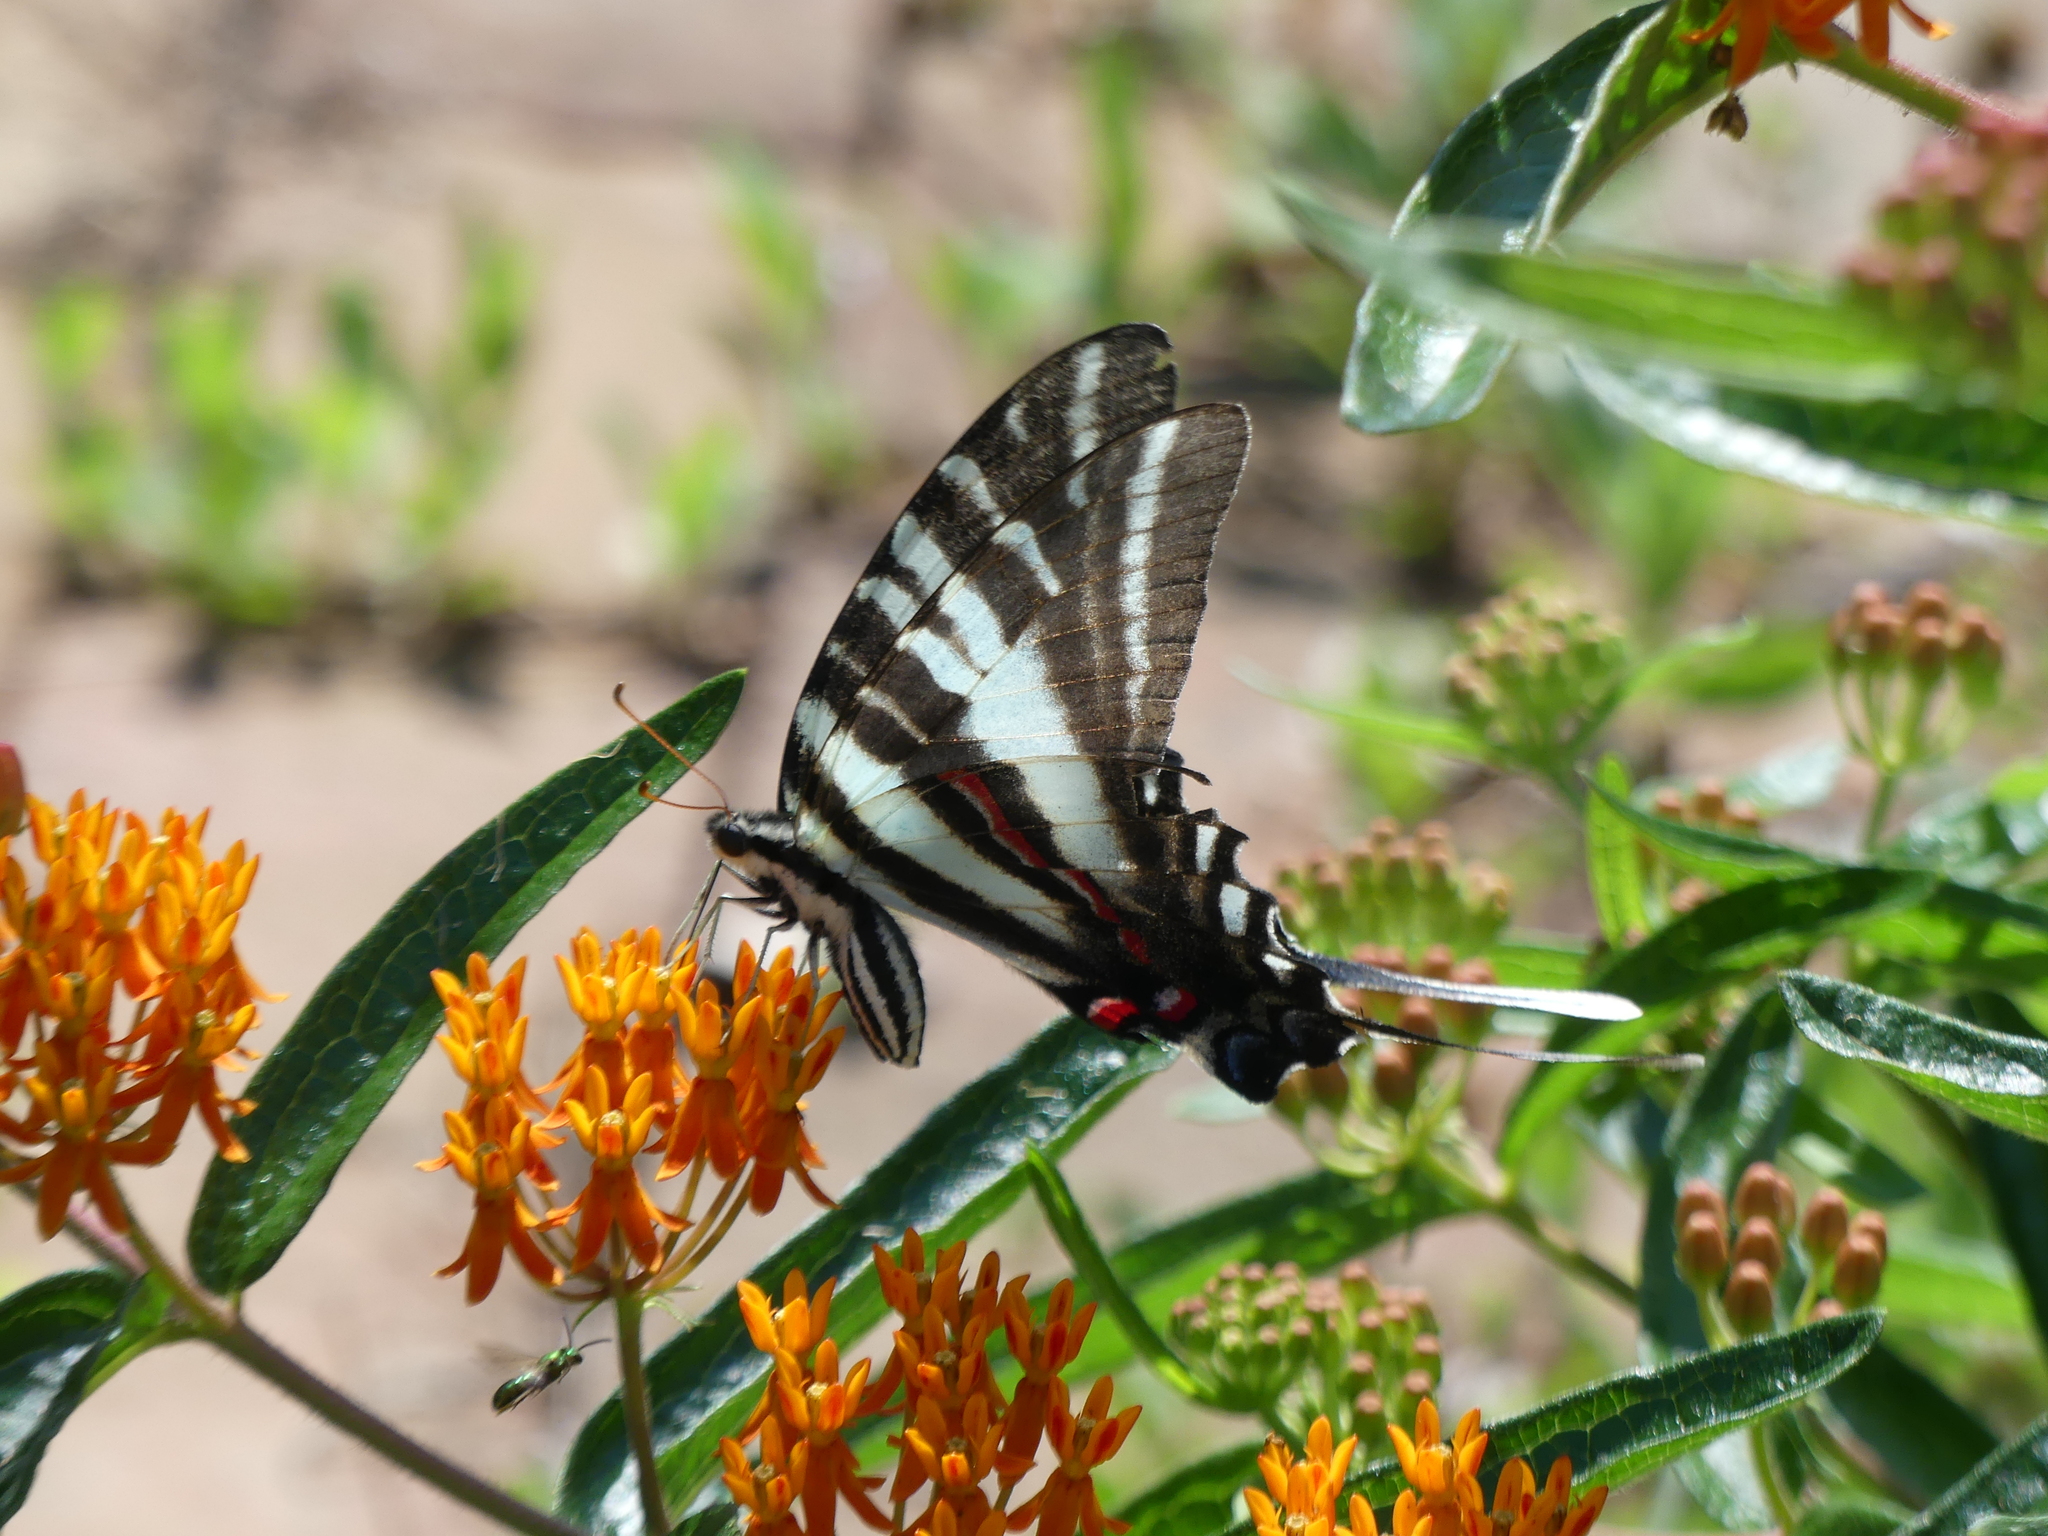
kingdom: Animalia
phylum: Arthropoda
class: Insecta
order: Lepidoptera
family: Papilionidae
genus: Protographium
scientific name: Protographium marcellus
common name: Zebra swallowtail
